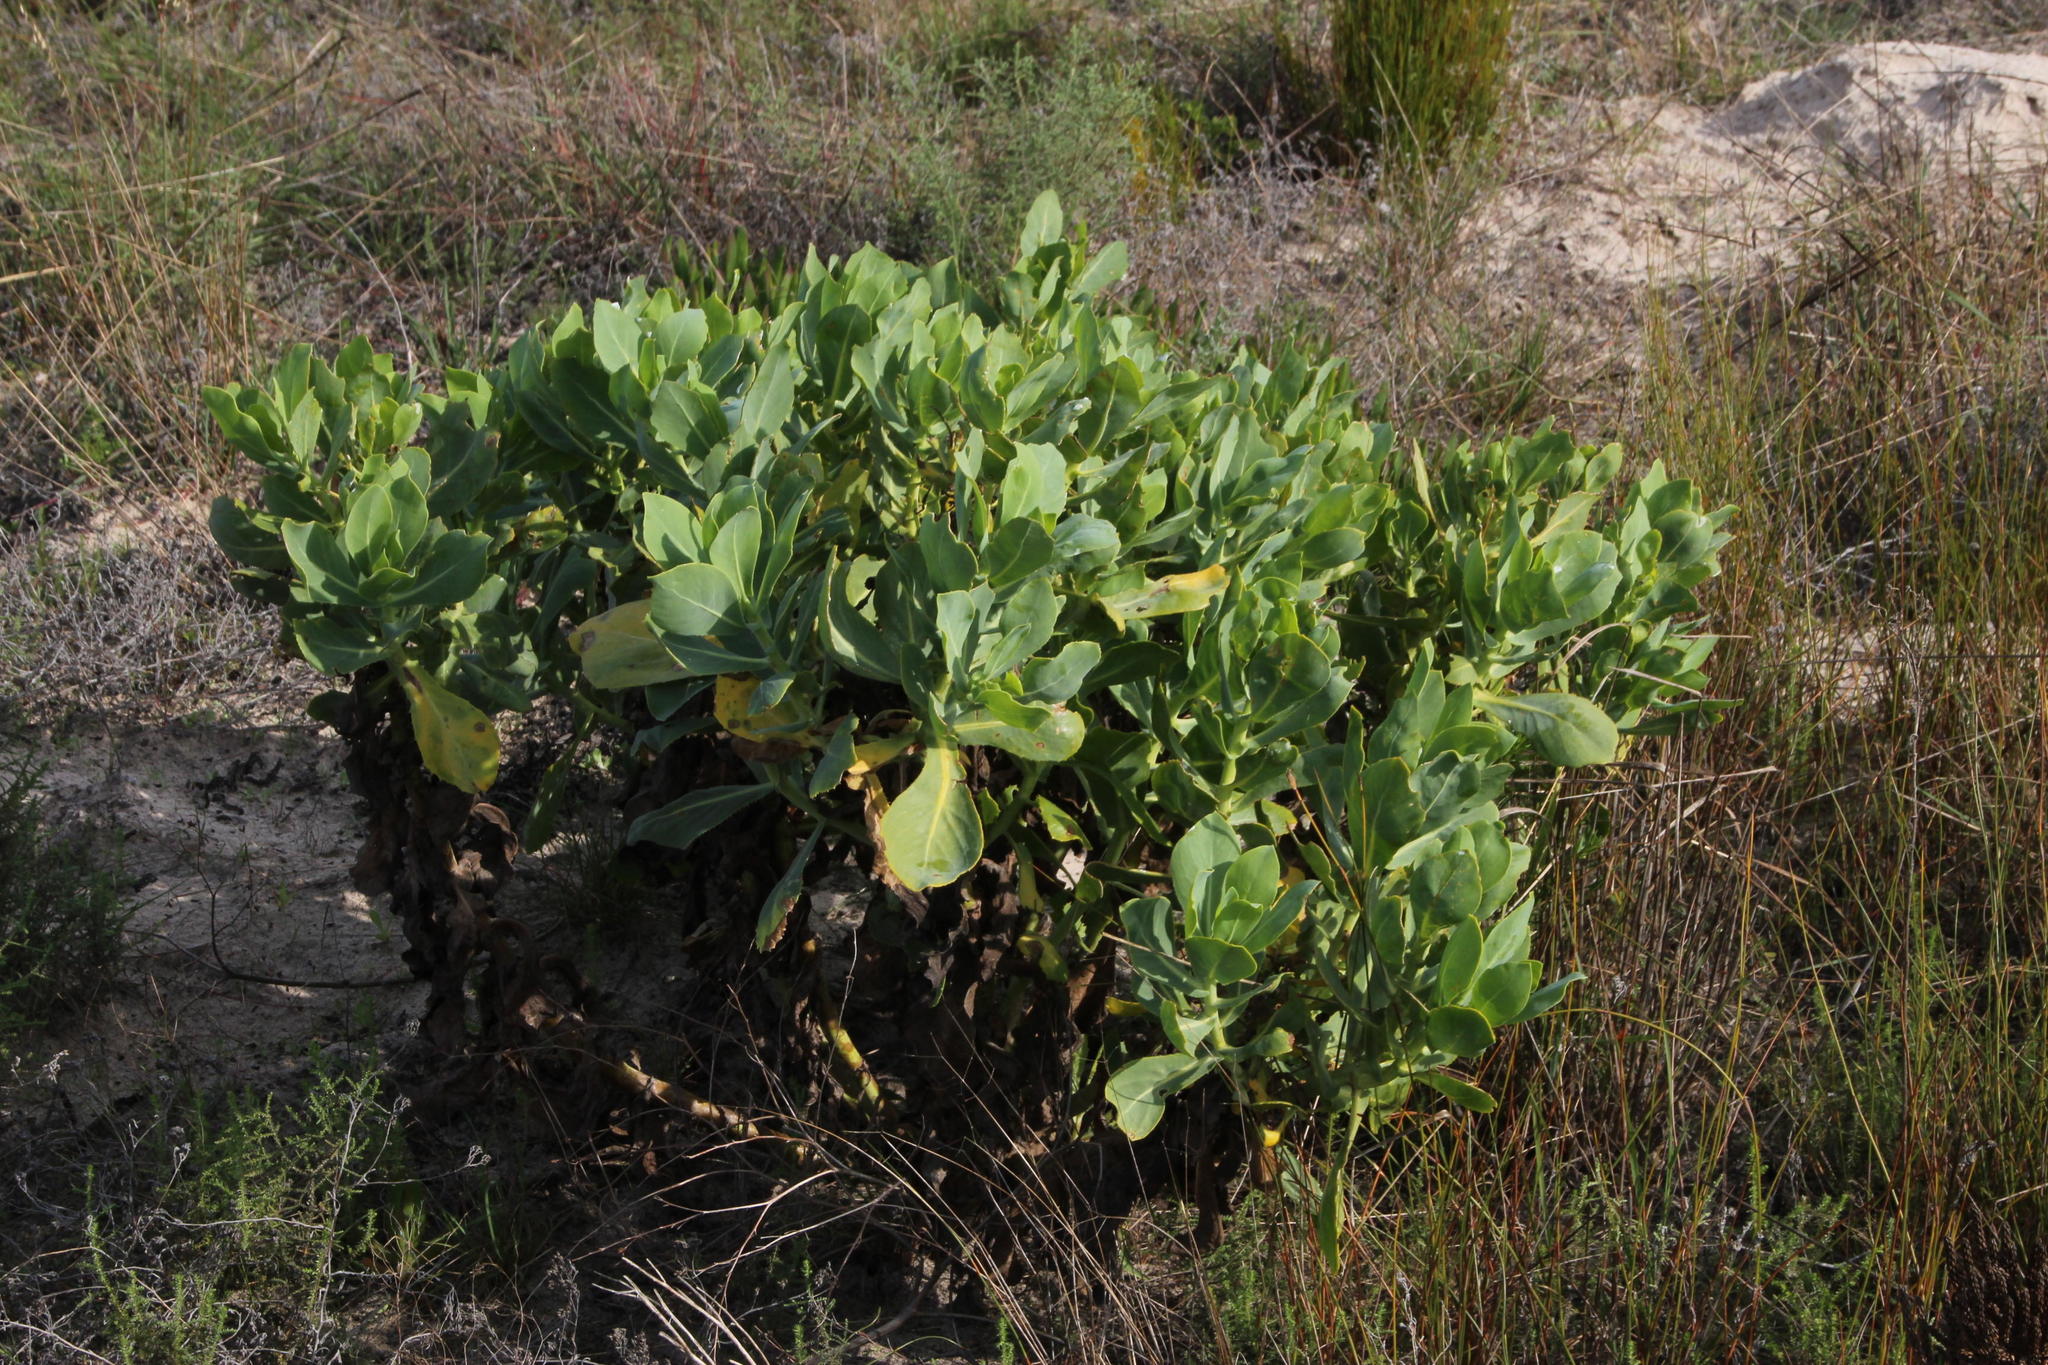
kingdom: Plantae
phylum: Tracheophyta
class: Magnoliopsida
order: Asterales
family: Asteraceae
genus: Othonna
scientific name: Othonna parviflora
